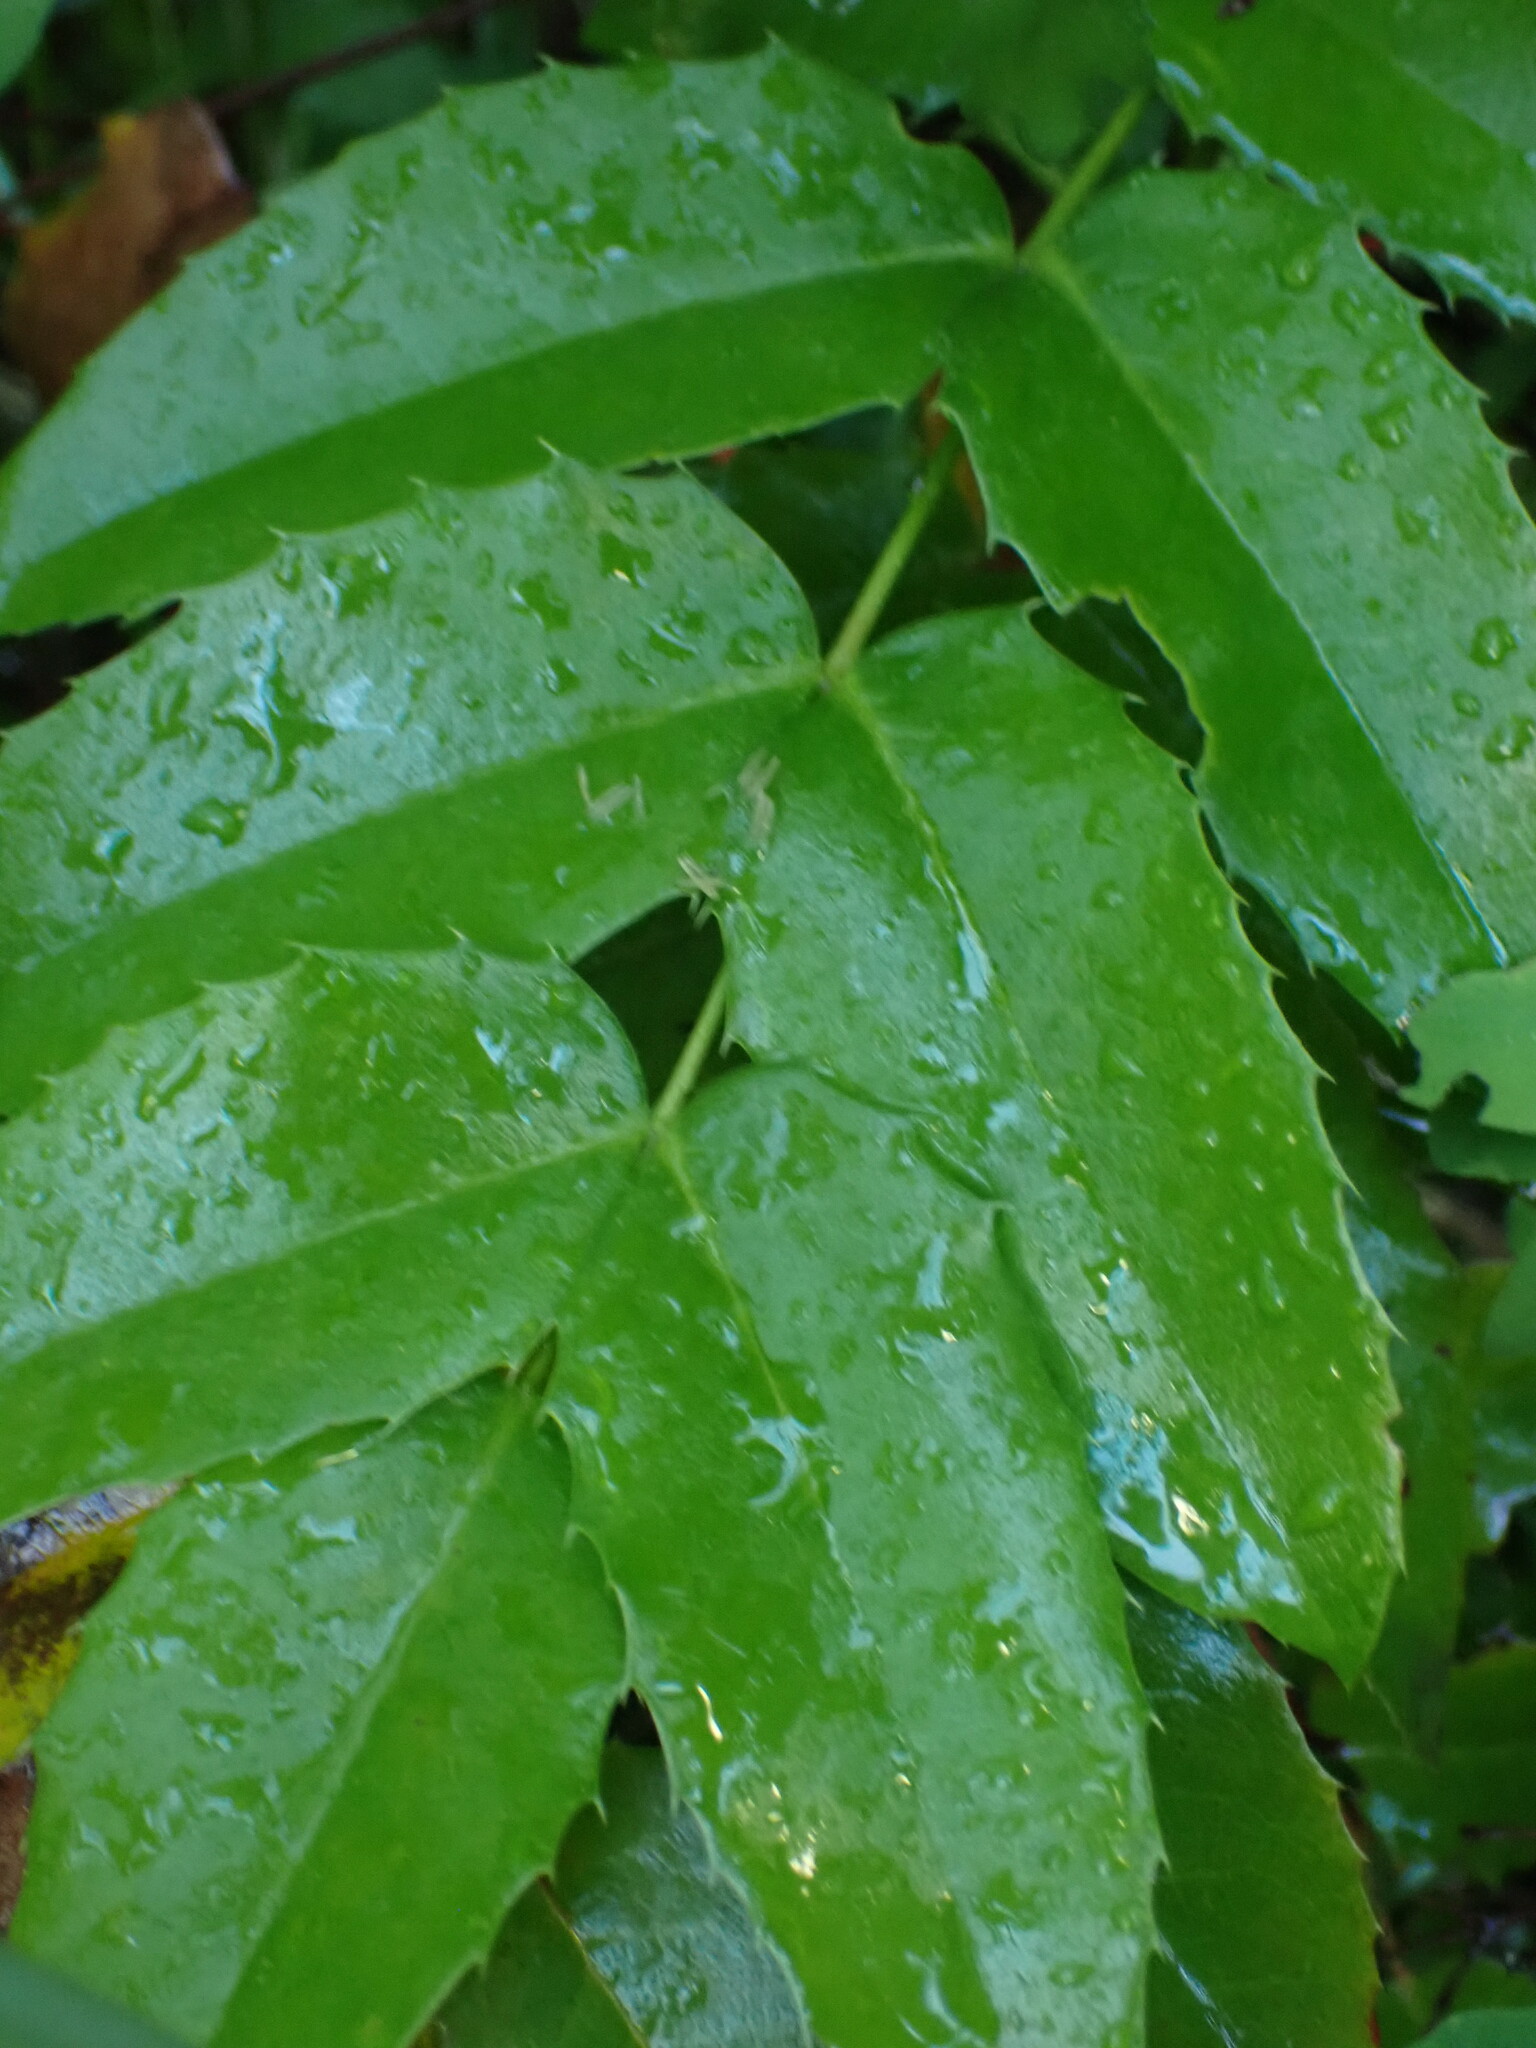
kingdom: Plantae
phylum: Tracheophyta
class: Magnoliopsida
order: Ranunculales
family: Berberidaceae
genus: Mahonia
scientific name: Mahonia aquifolium
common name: Oregon-grape
